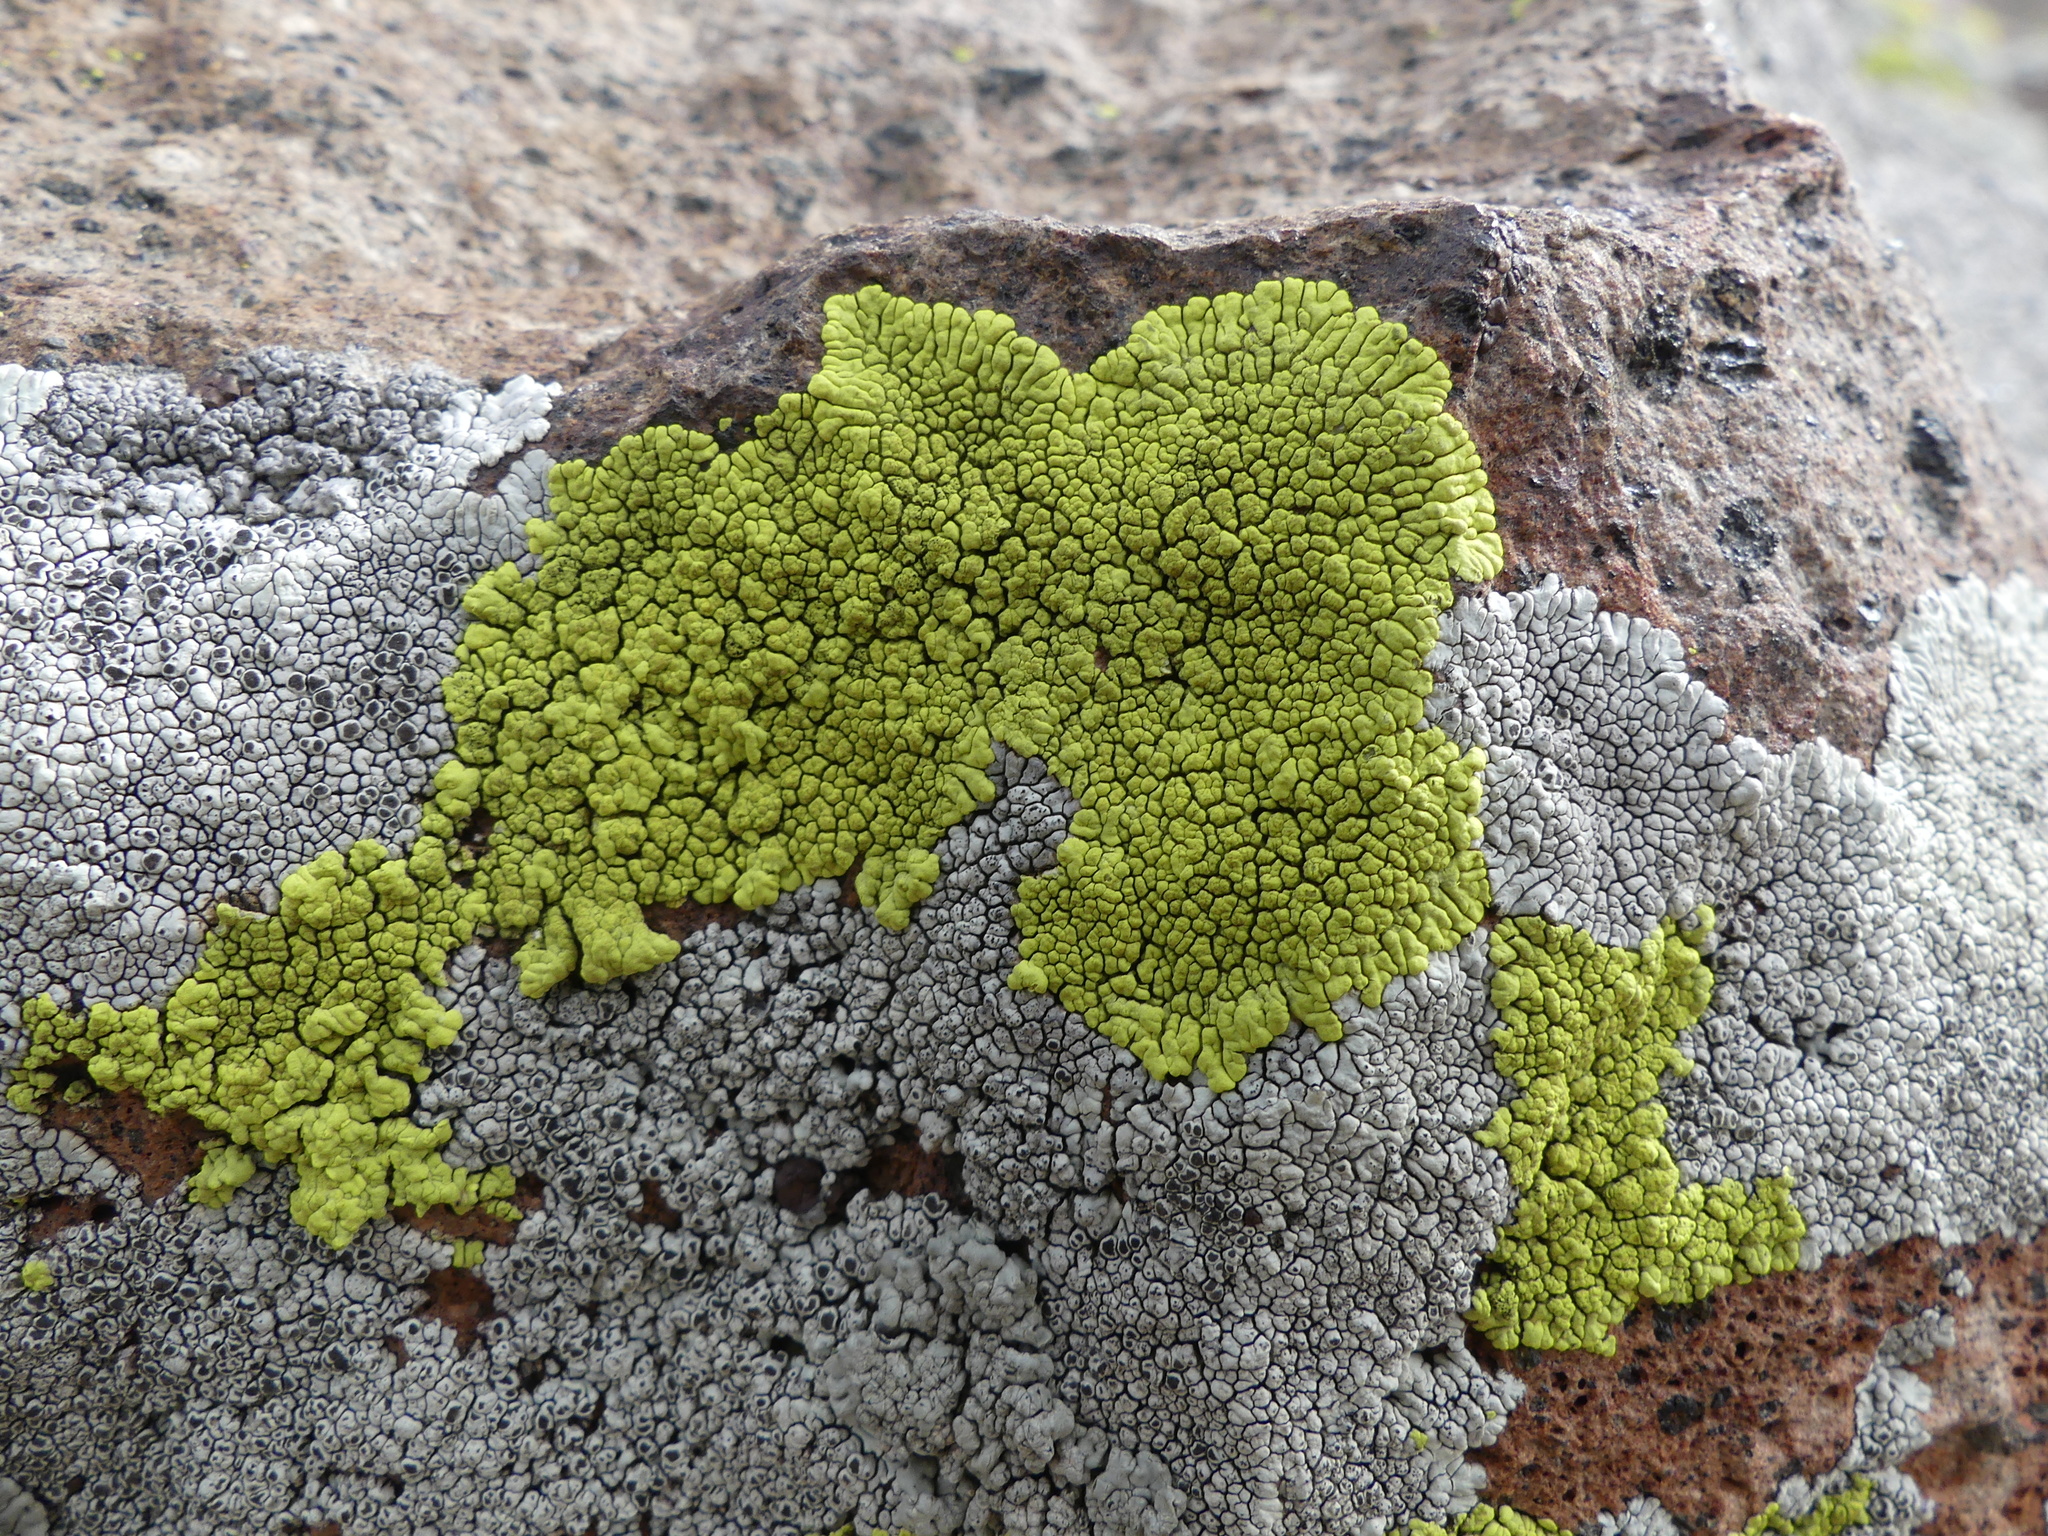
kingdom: Fungi
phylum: Ascomycota
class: Lecanoromycetes
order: Acarosporales
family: Acarosporaceae
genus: Pleopsidium
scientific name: Pleopsidium oxytonum
